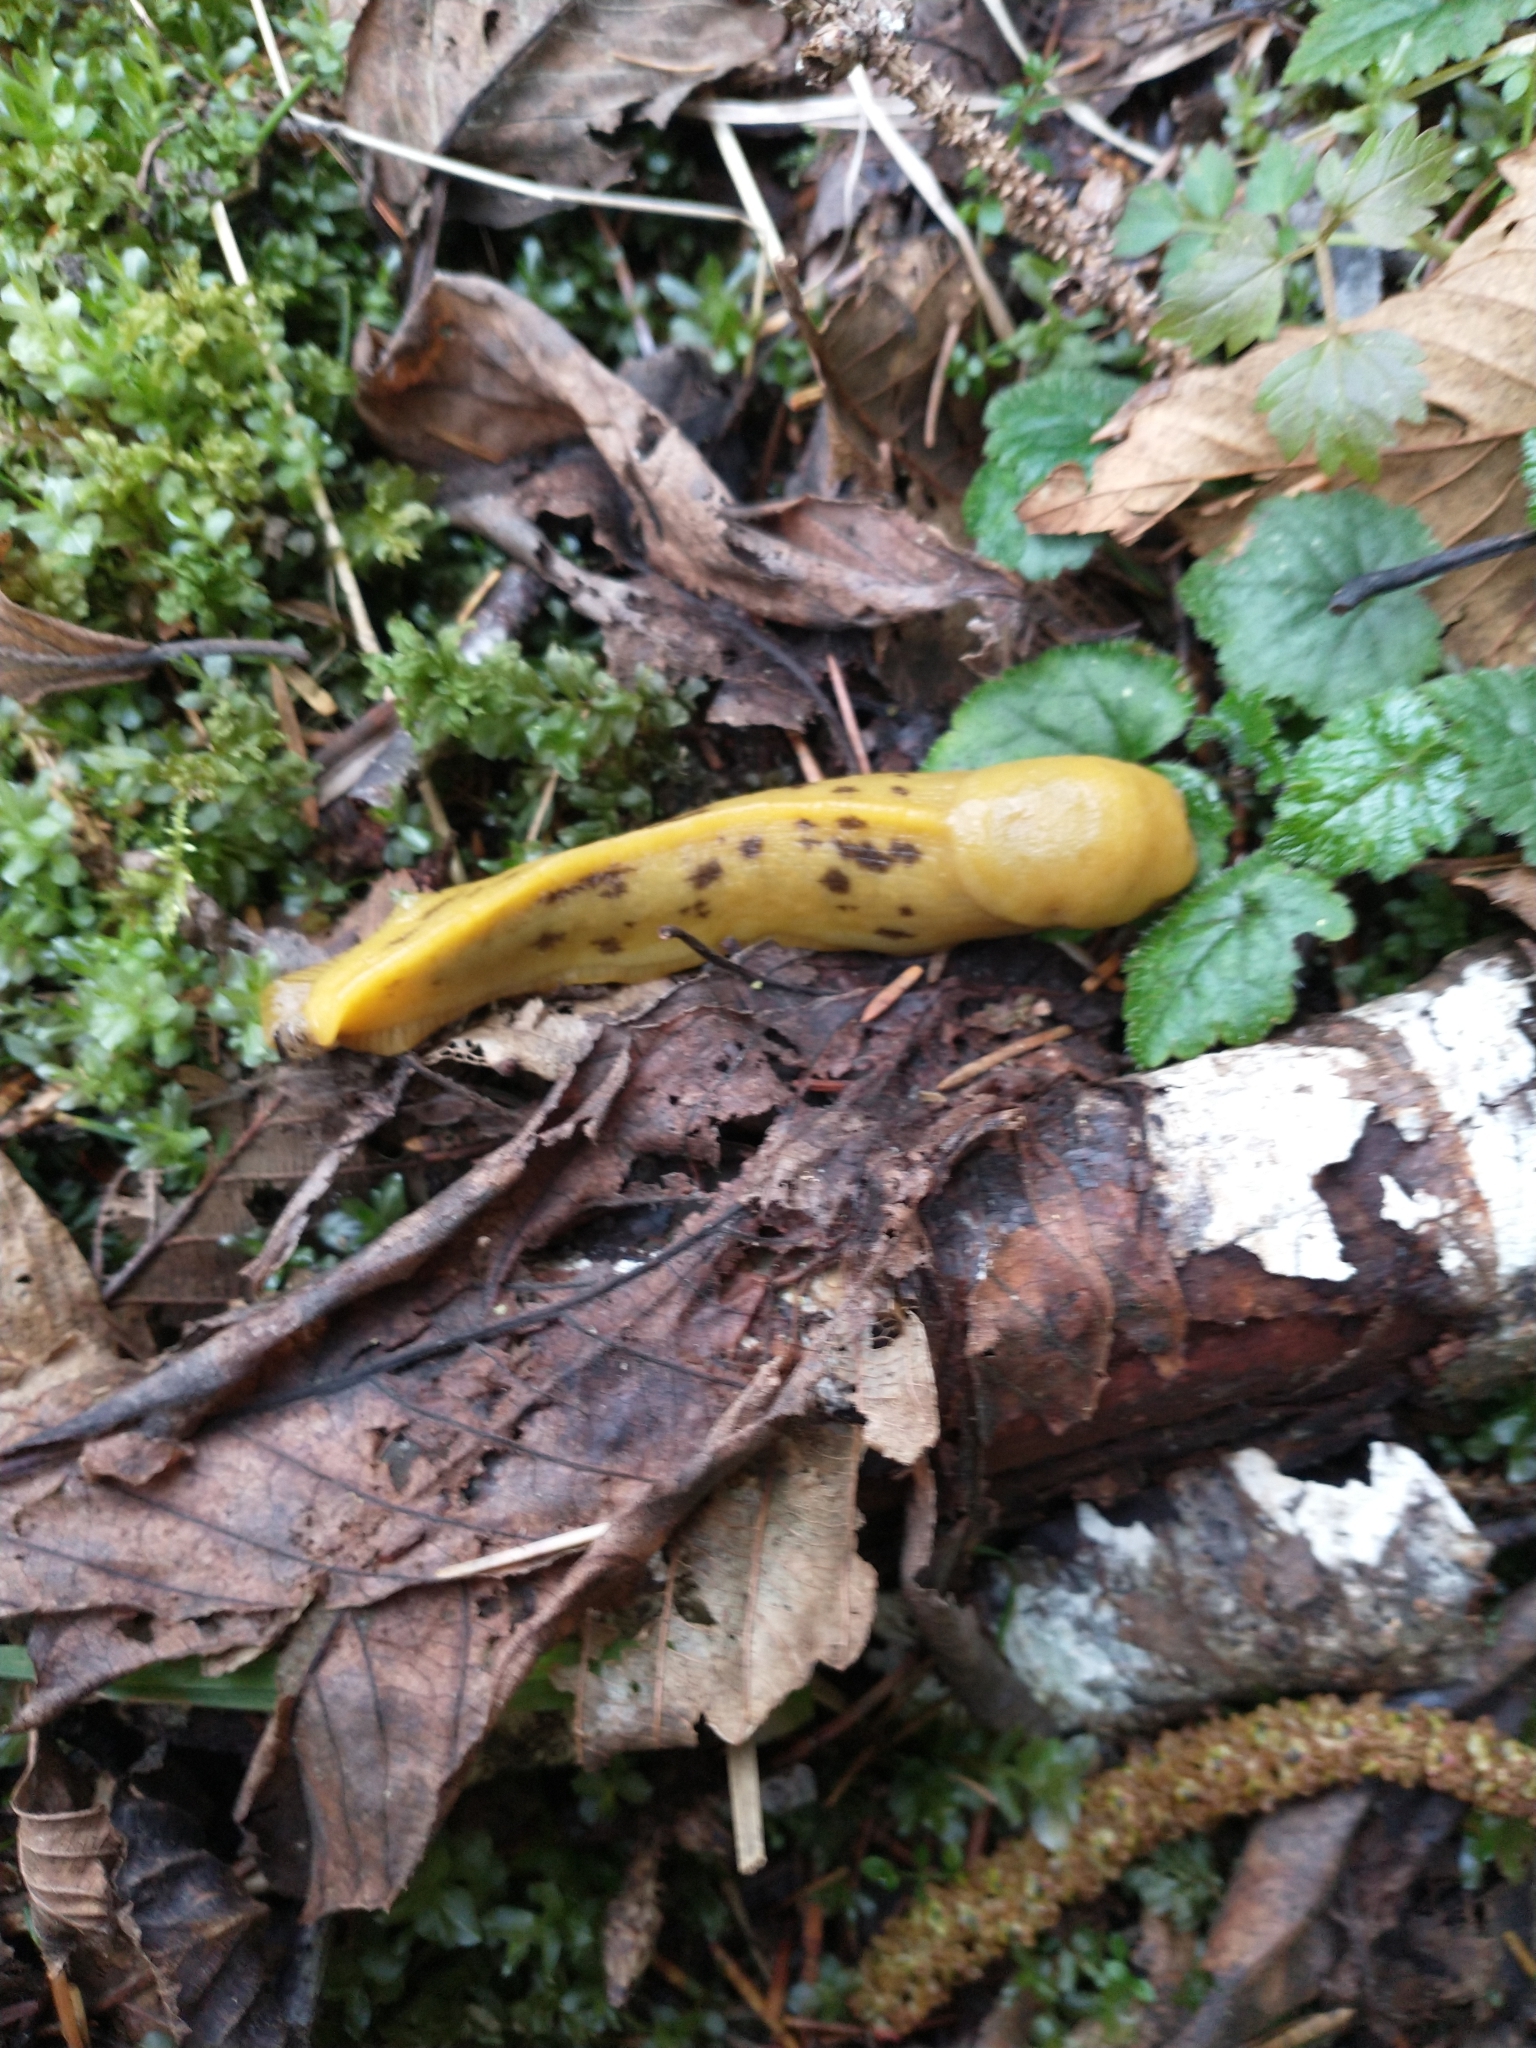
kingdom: Animalia
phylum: Mollusca
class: Gastropoda
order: Stylommatophora
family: Ariolimacidae
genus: Ariolimax
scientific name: Ariolimax columbianus
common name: Pacific banana slug
